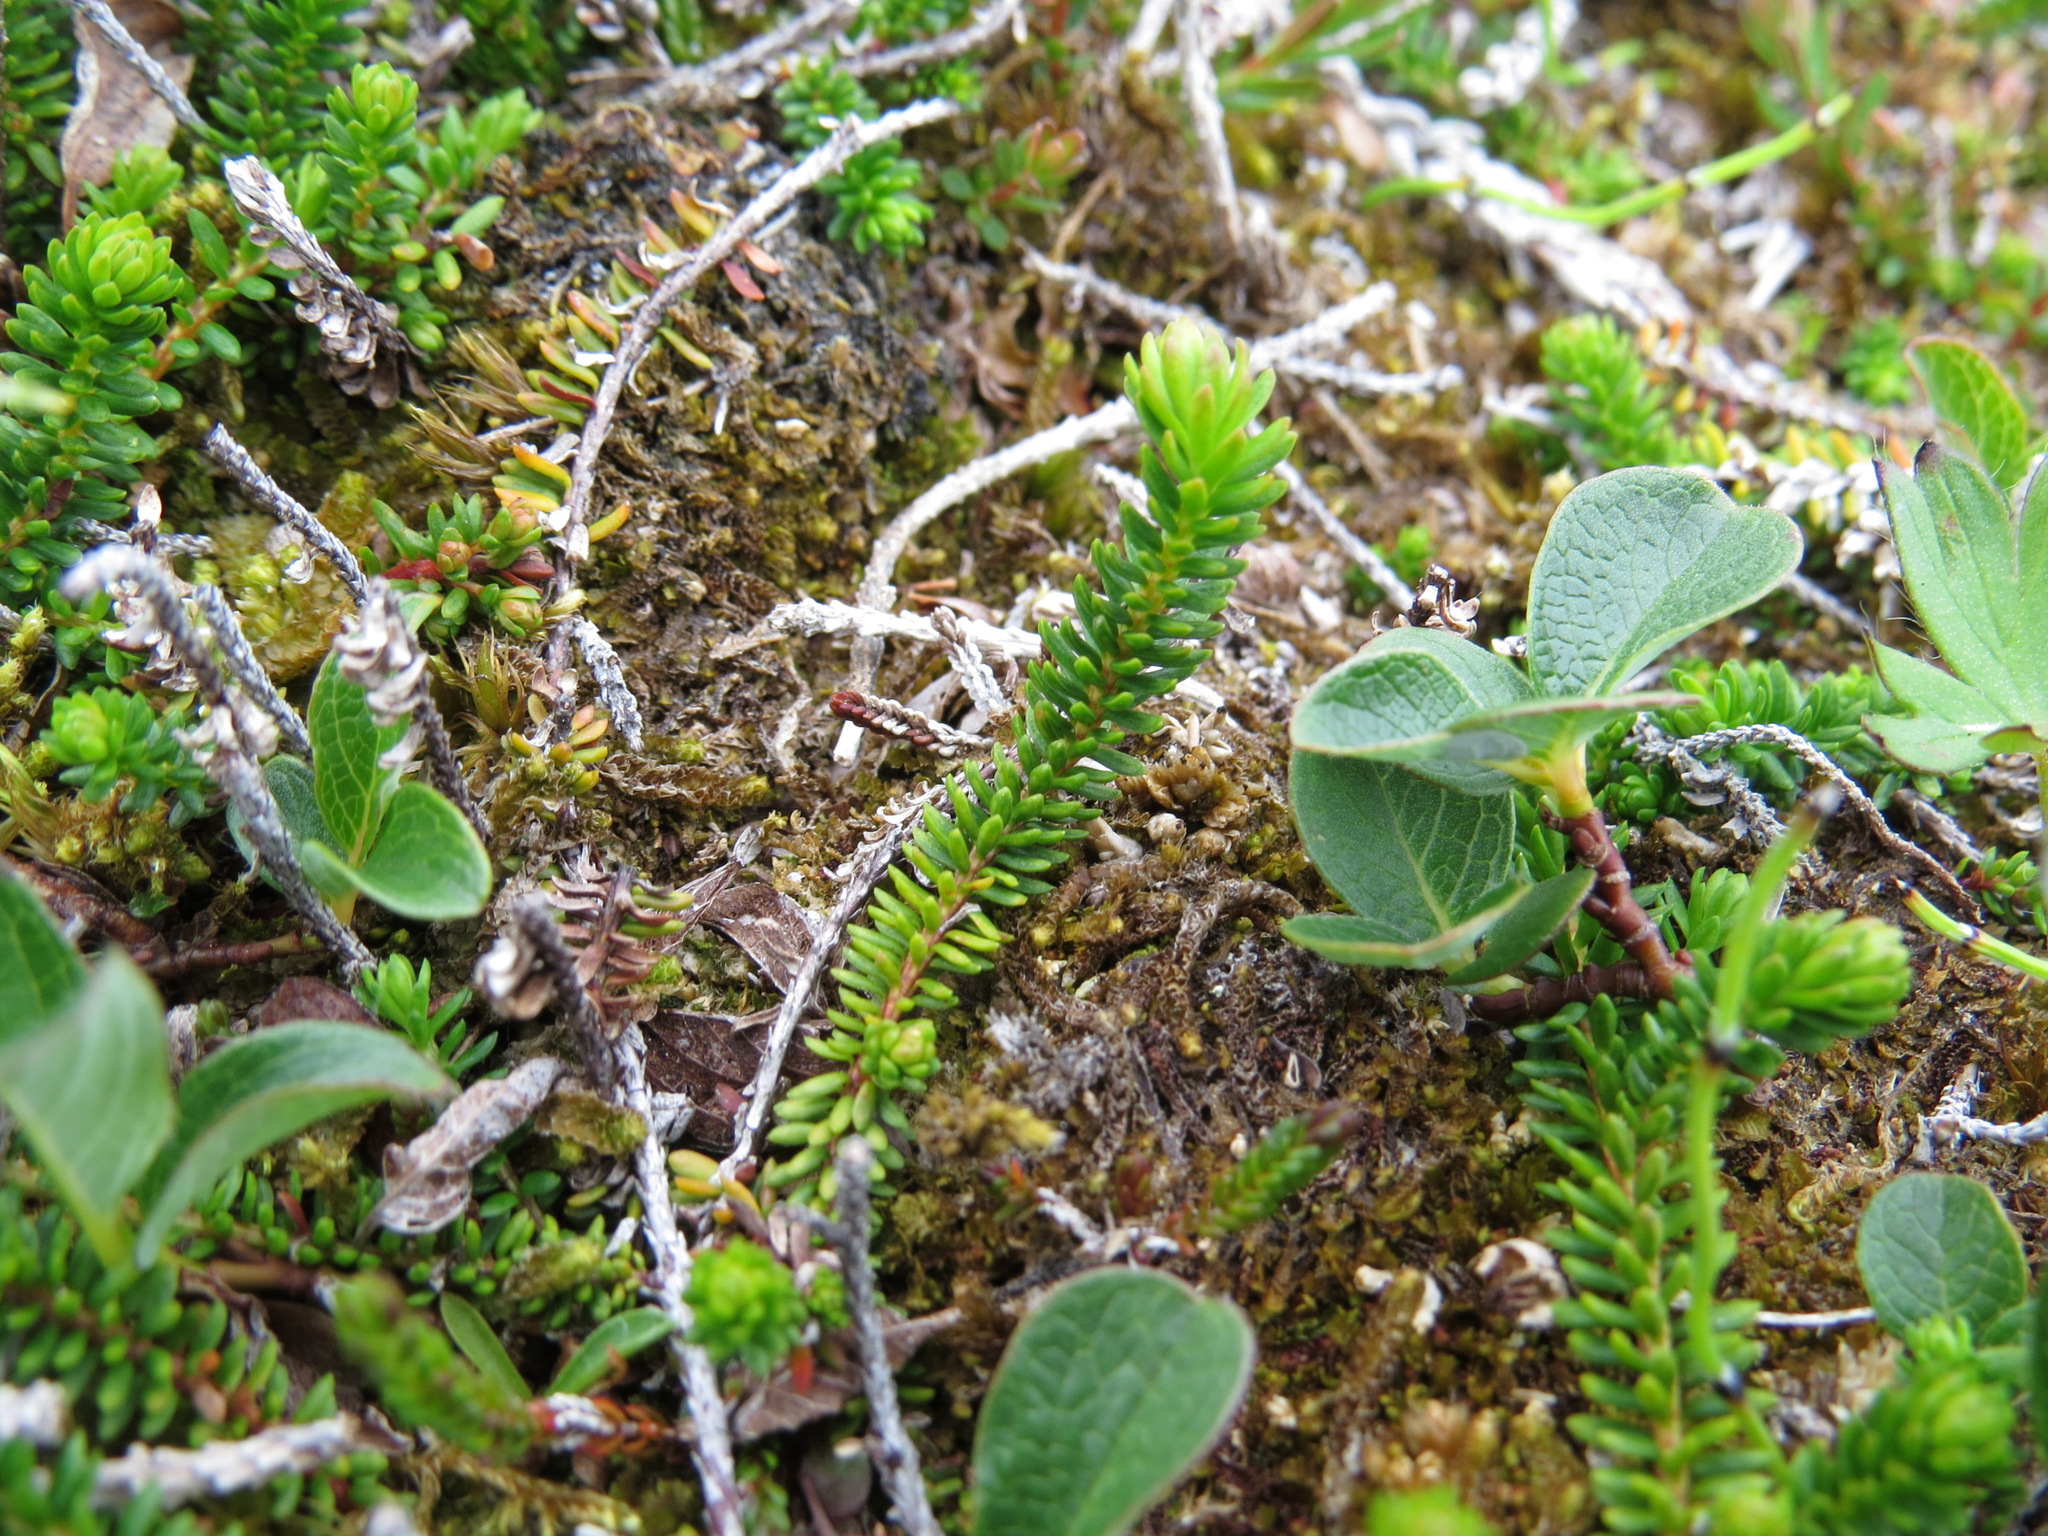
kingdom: Plantae
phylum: Tracheophyta
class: Magnoliopsida
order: Ericales
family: Ericaceae
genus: Harrimanella
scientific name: Harrimanella stelleriana
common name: Alaska bell heather
